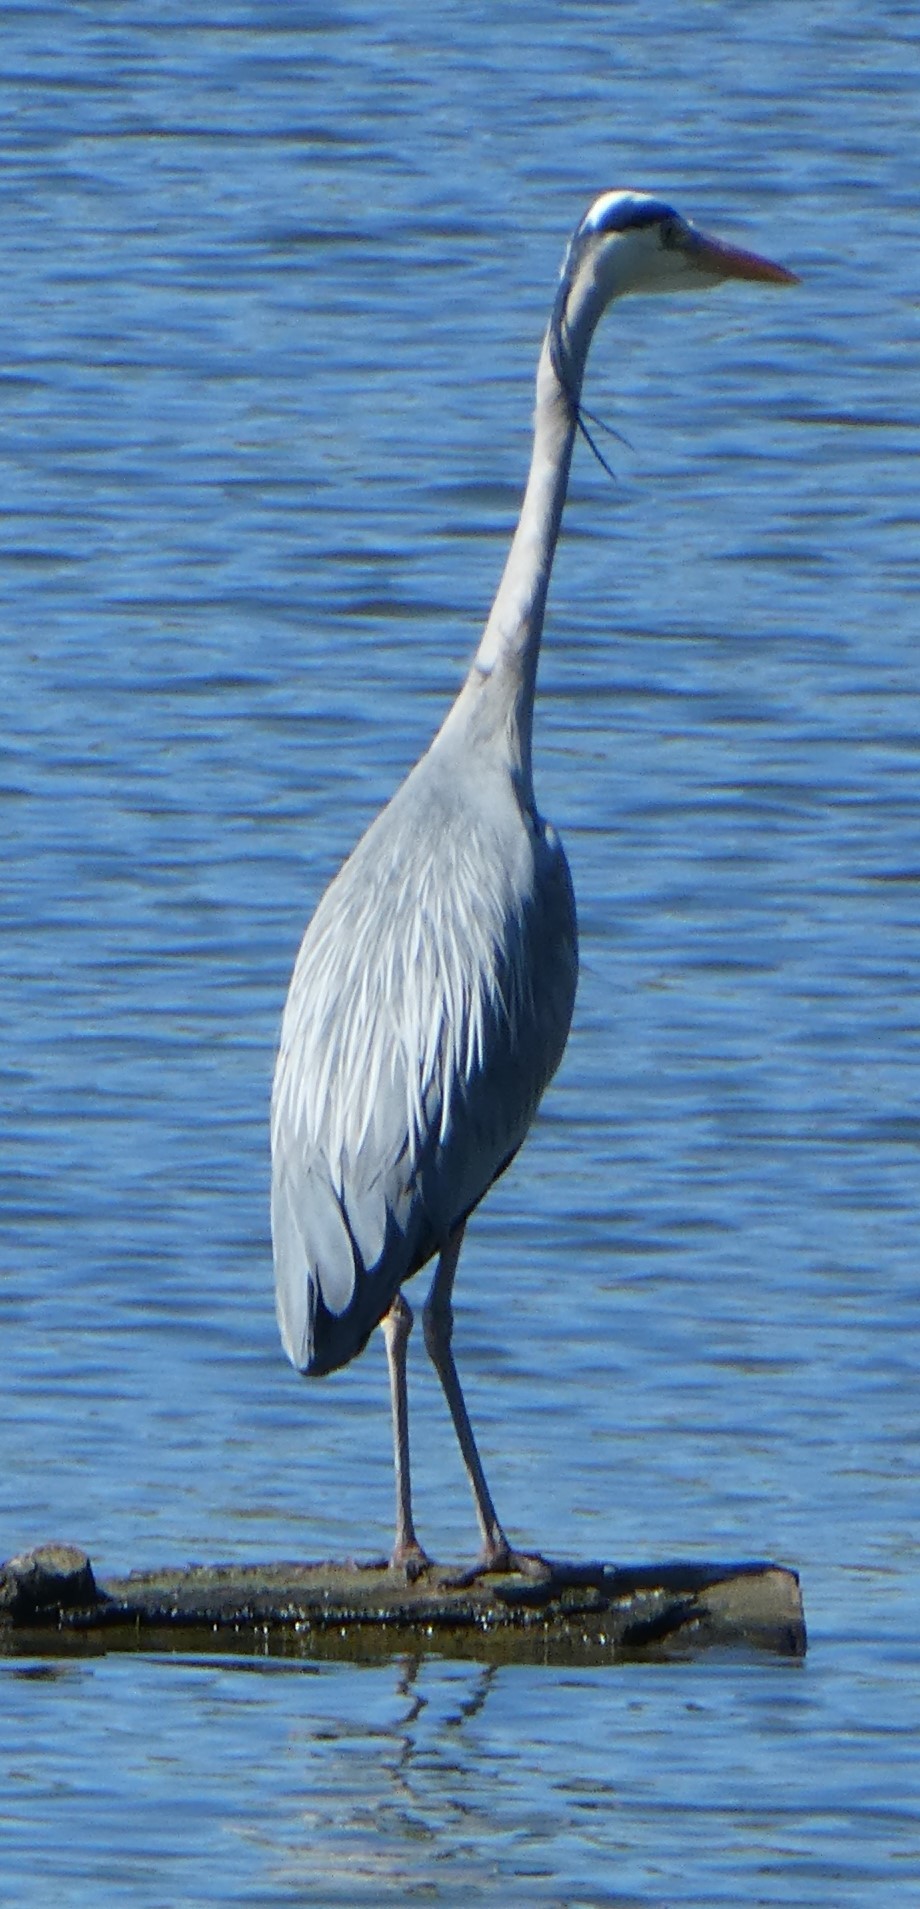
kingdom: Animalia
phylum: Chordata
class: Aves
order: Pelecaniformes
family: Ardeidae
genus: Ardea
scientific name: Ardea cinerea
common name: Grey heron
